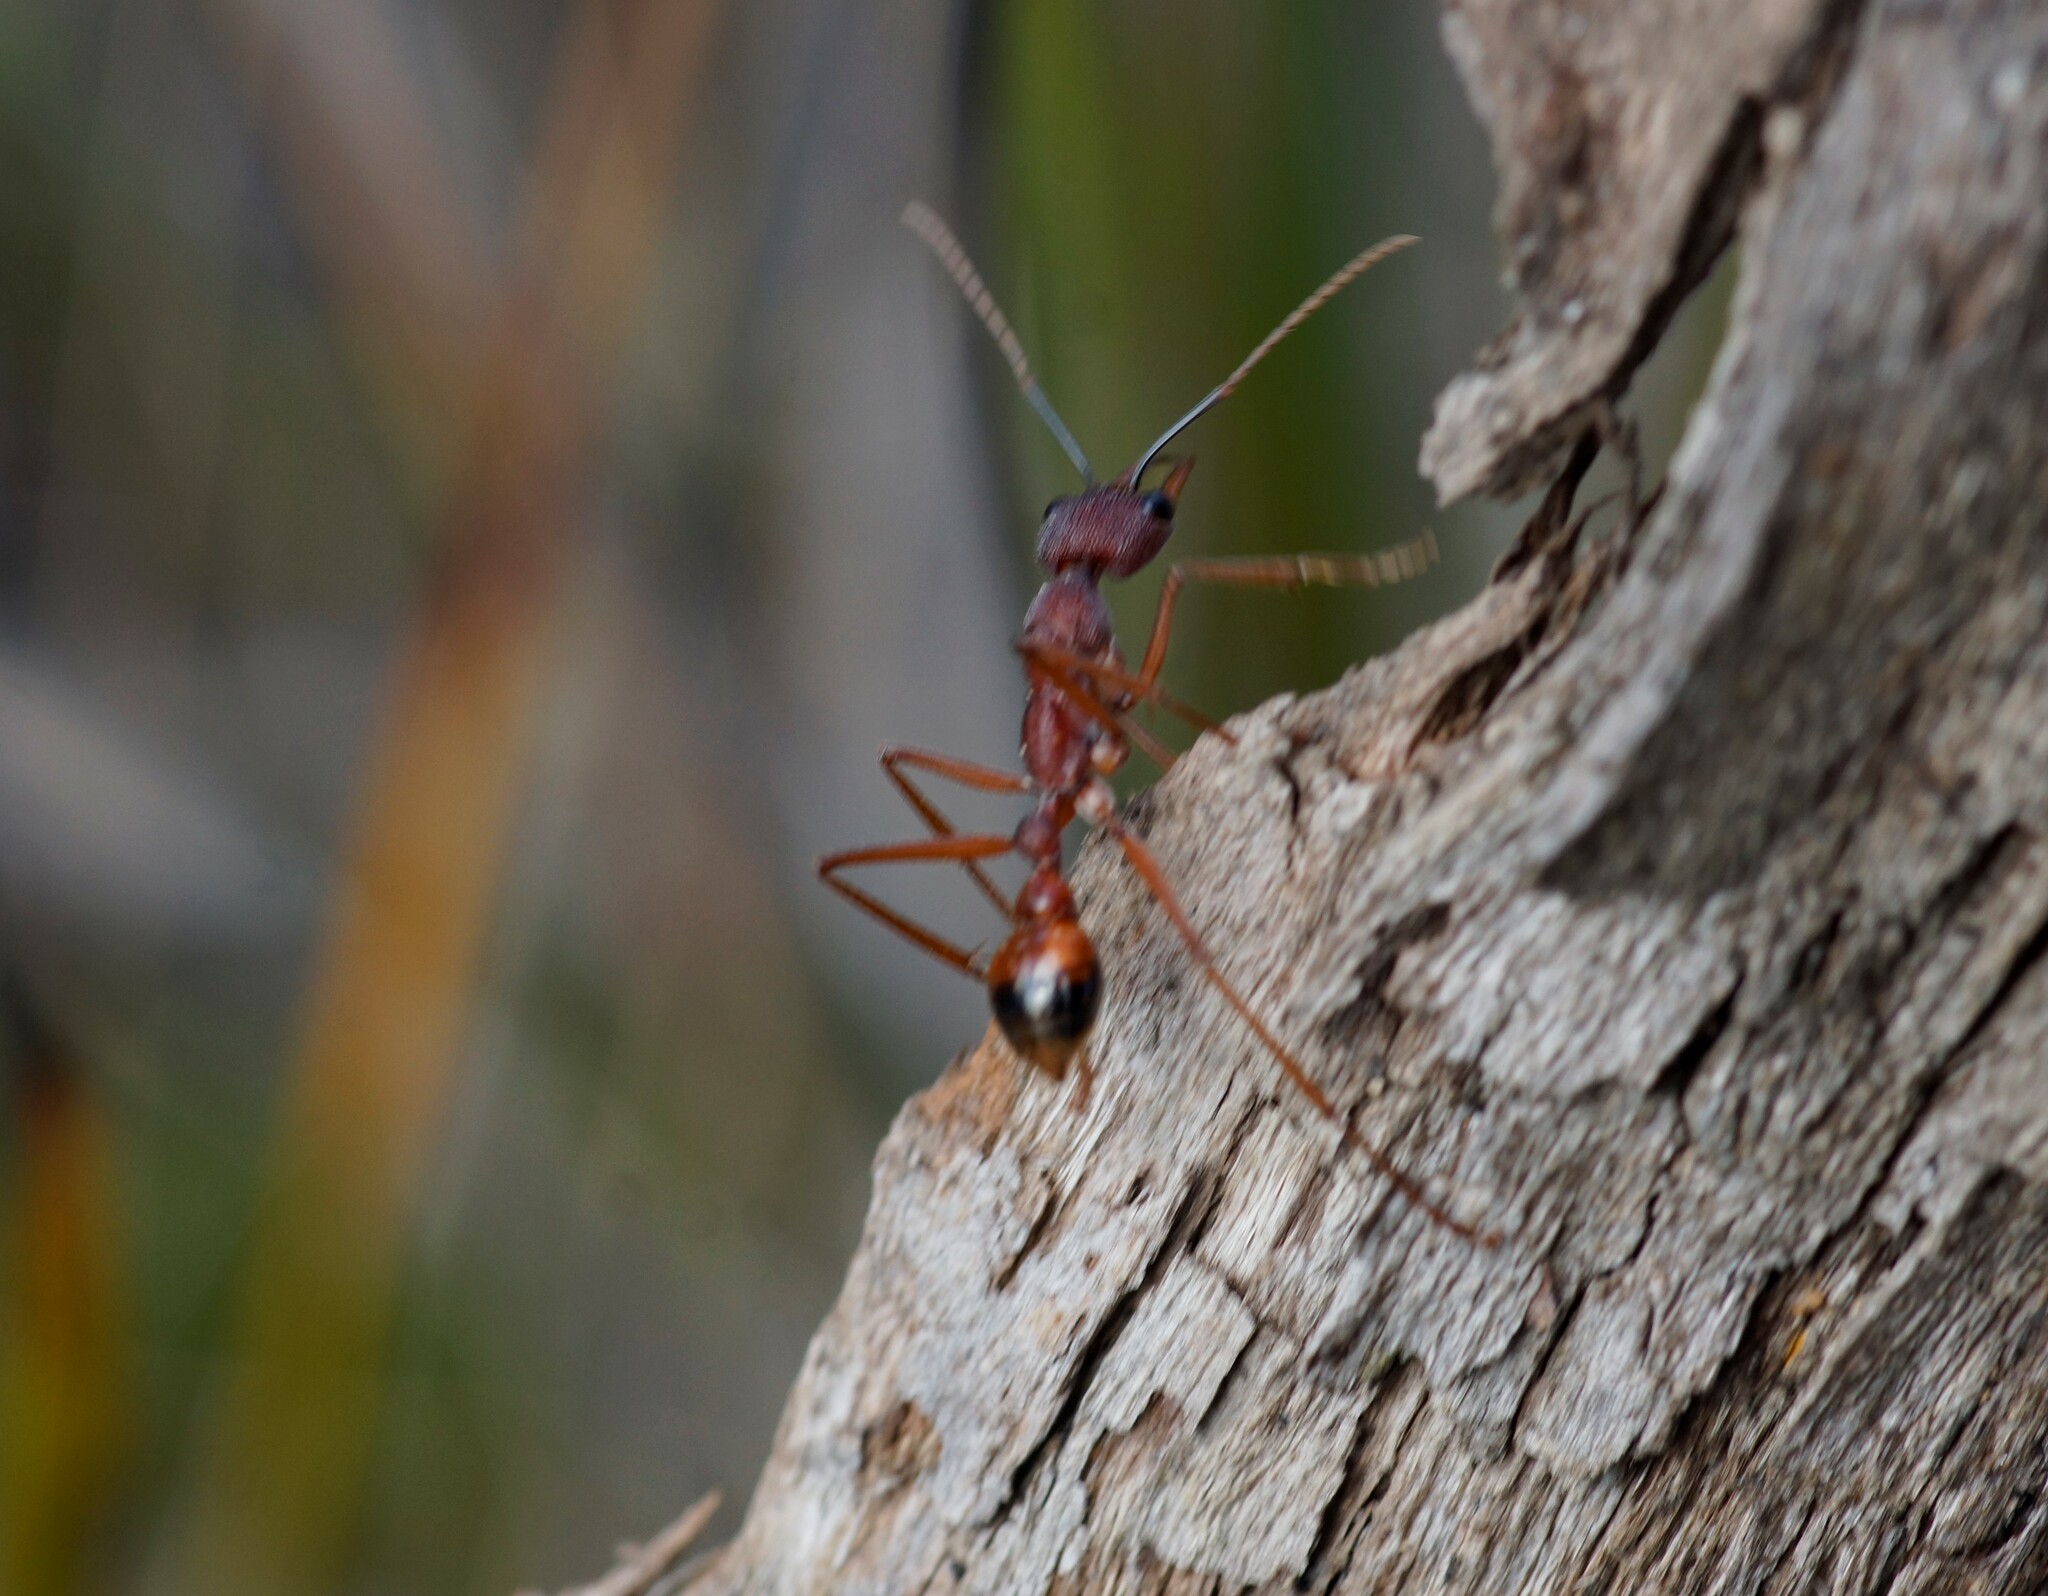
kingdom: Animalia
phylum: Arthropoda
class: Insecta
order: Hymenoptera
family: Formicidae
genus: Myrmecia
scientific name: Myrmecia nigriscapa
